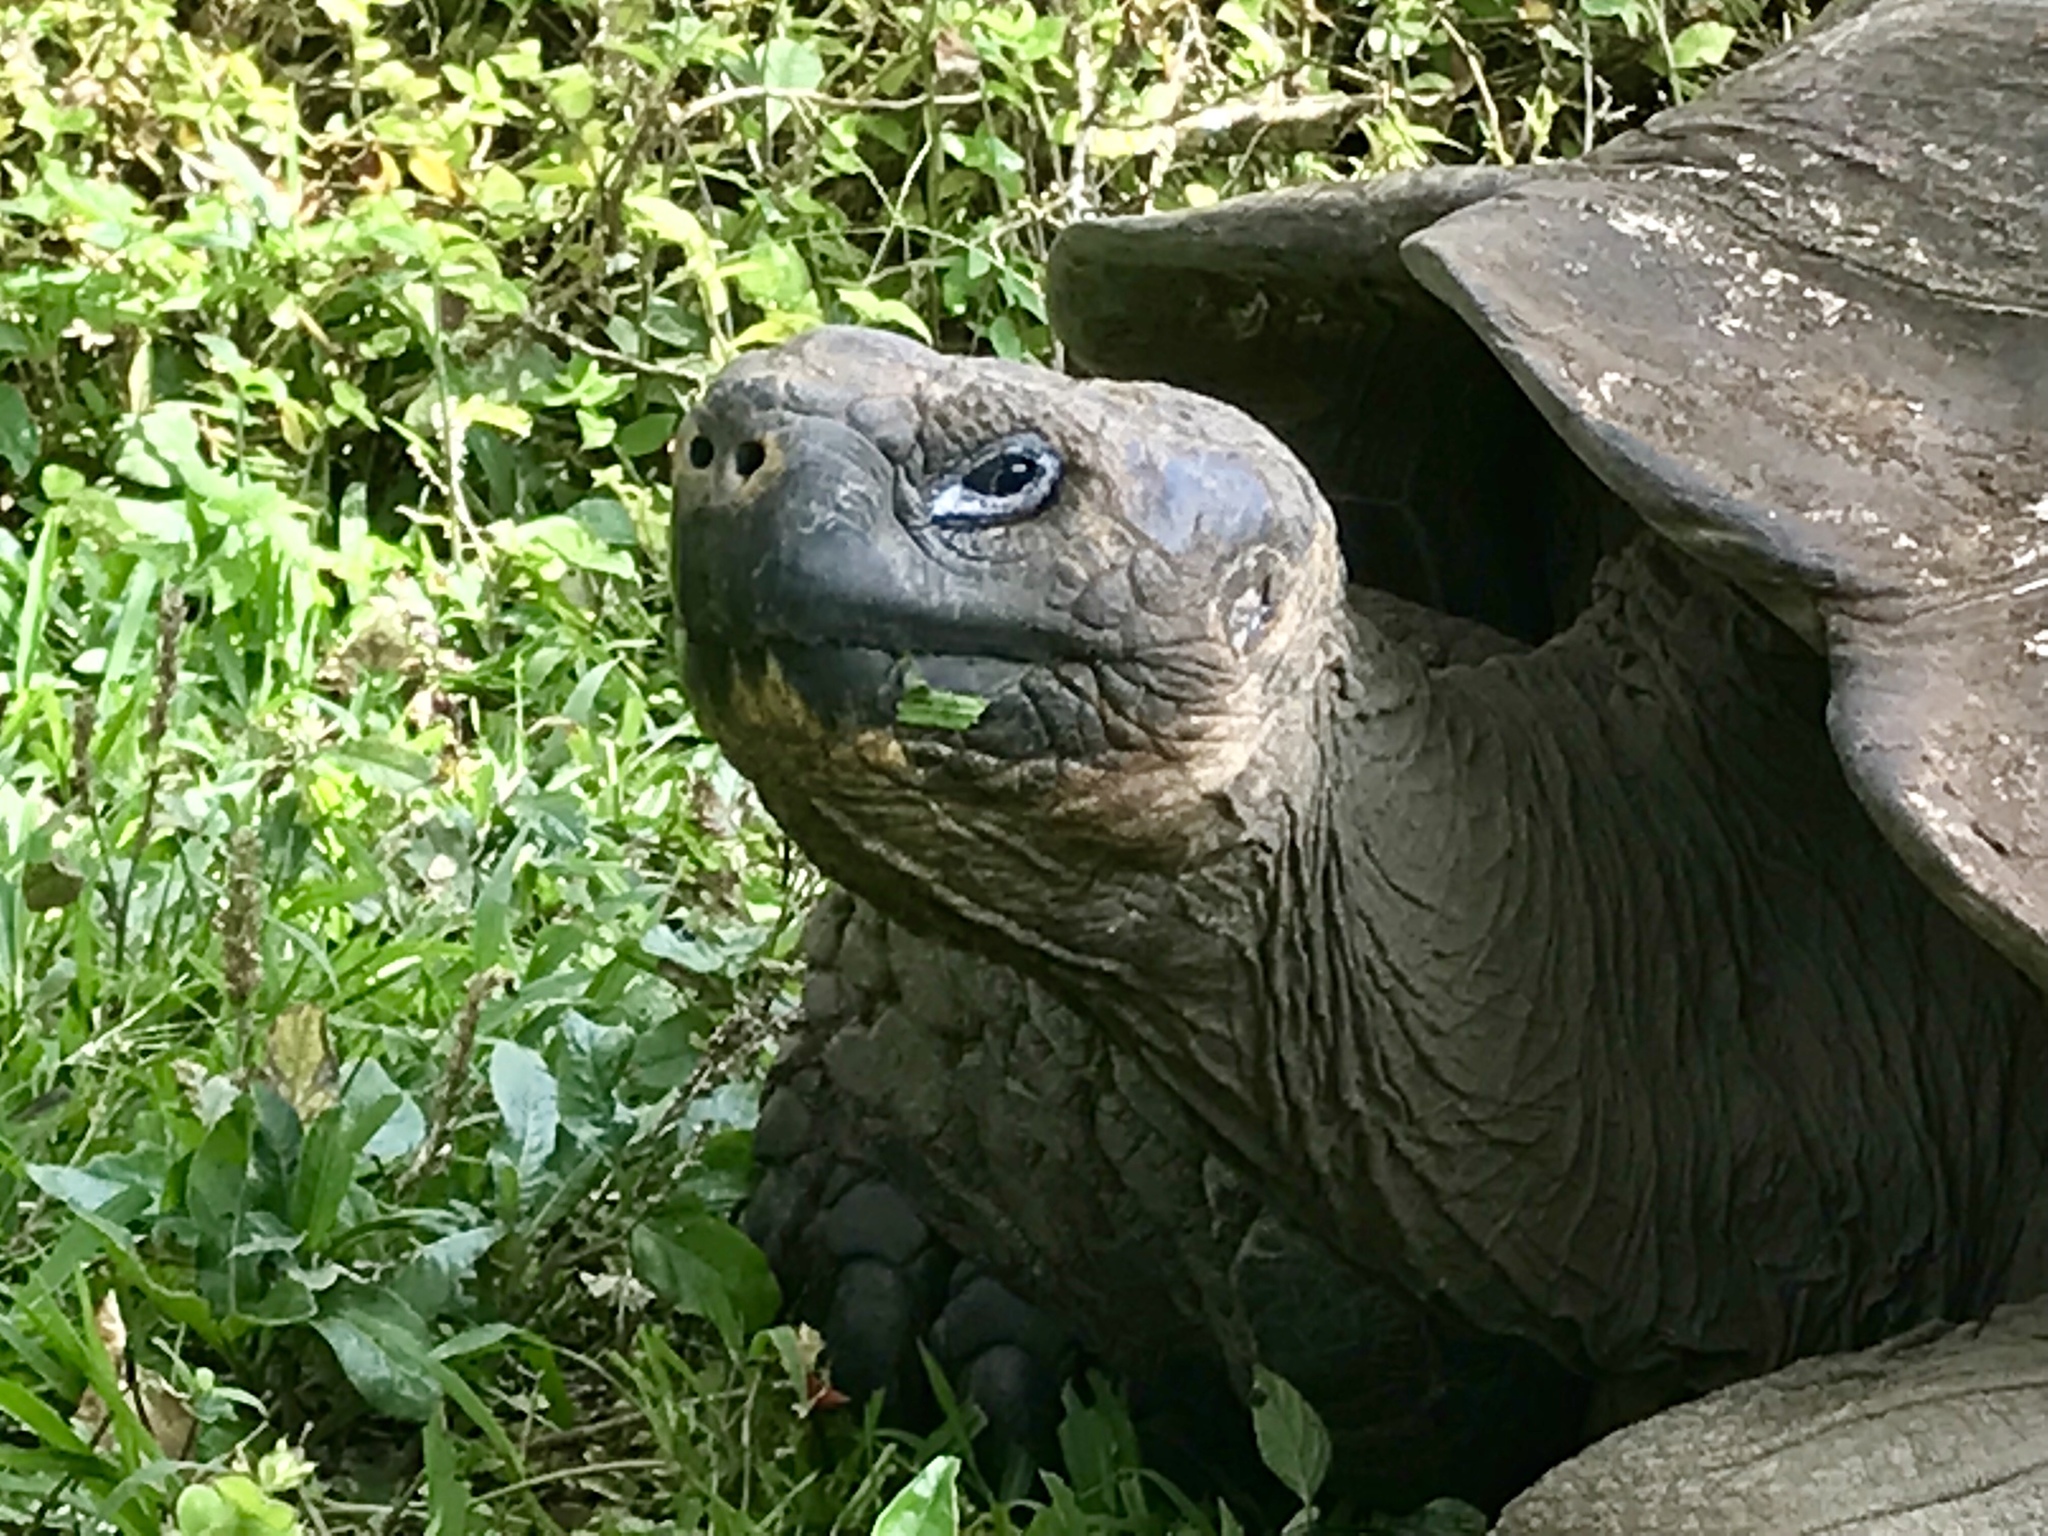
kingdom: Animalia
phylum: Chordata
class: Testudines
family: Testudinidae
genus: Chelonoidis
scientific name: Chelonoidis porteri
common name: Indefatigable island giant tortoise
